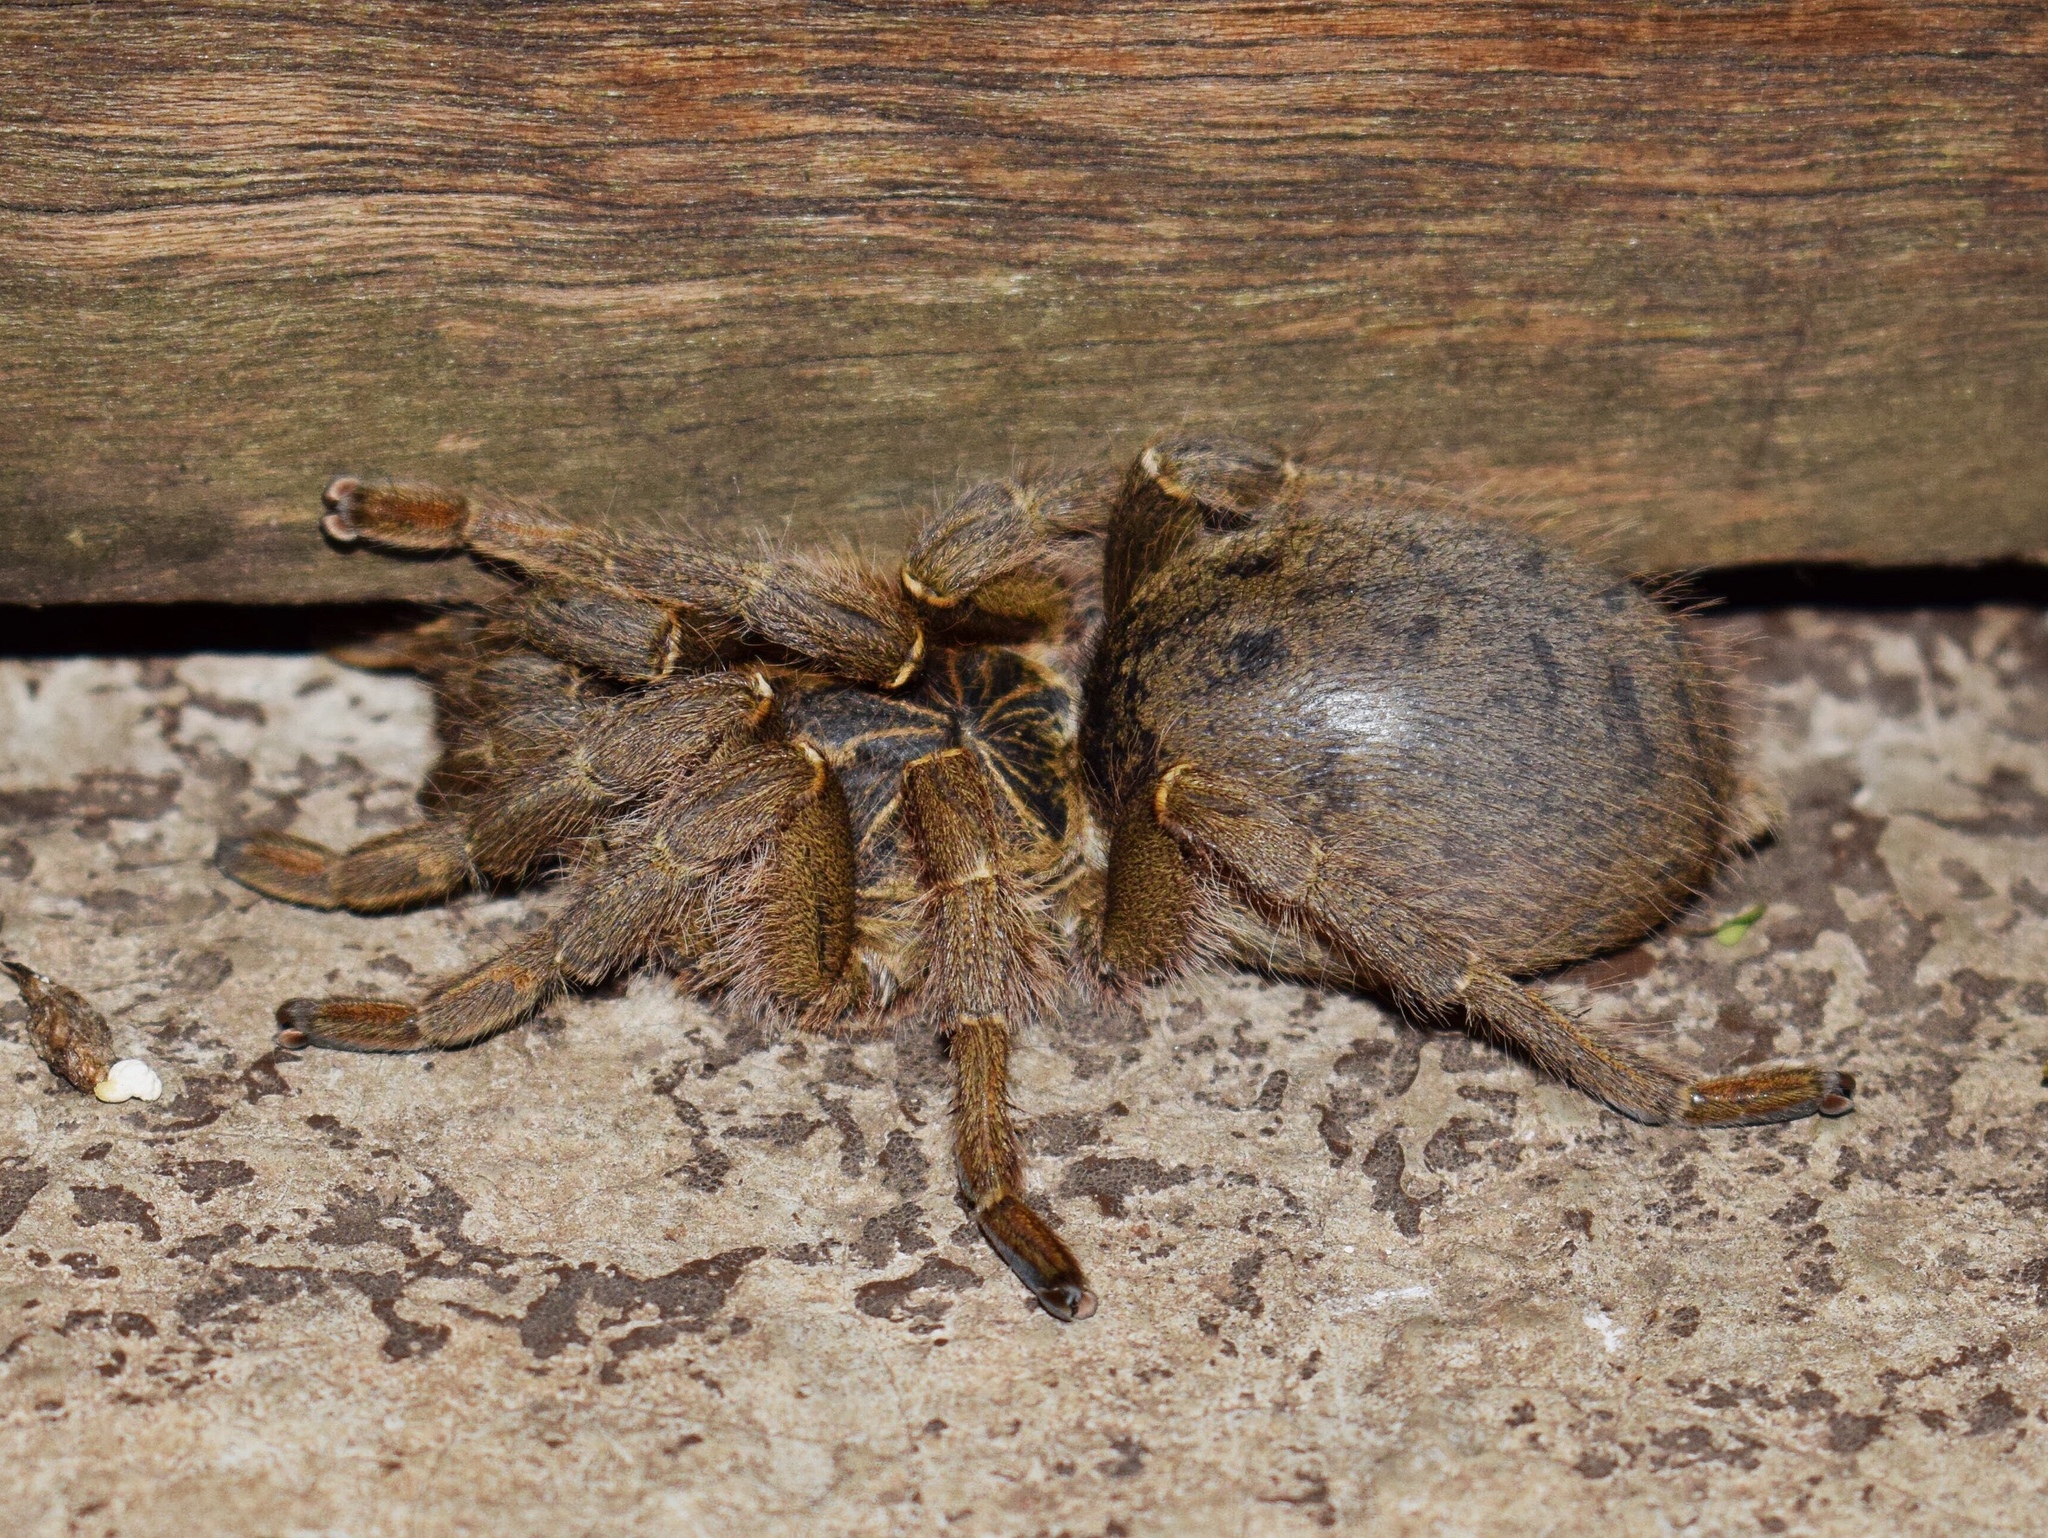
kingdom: Animalia
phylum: Arthropoda
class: Arachnida
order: Araneae
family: Theraphosidae
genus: Harpactira
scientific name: Harpactira curator
